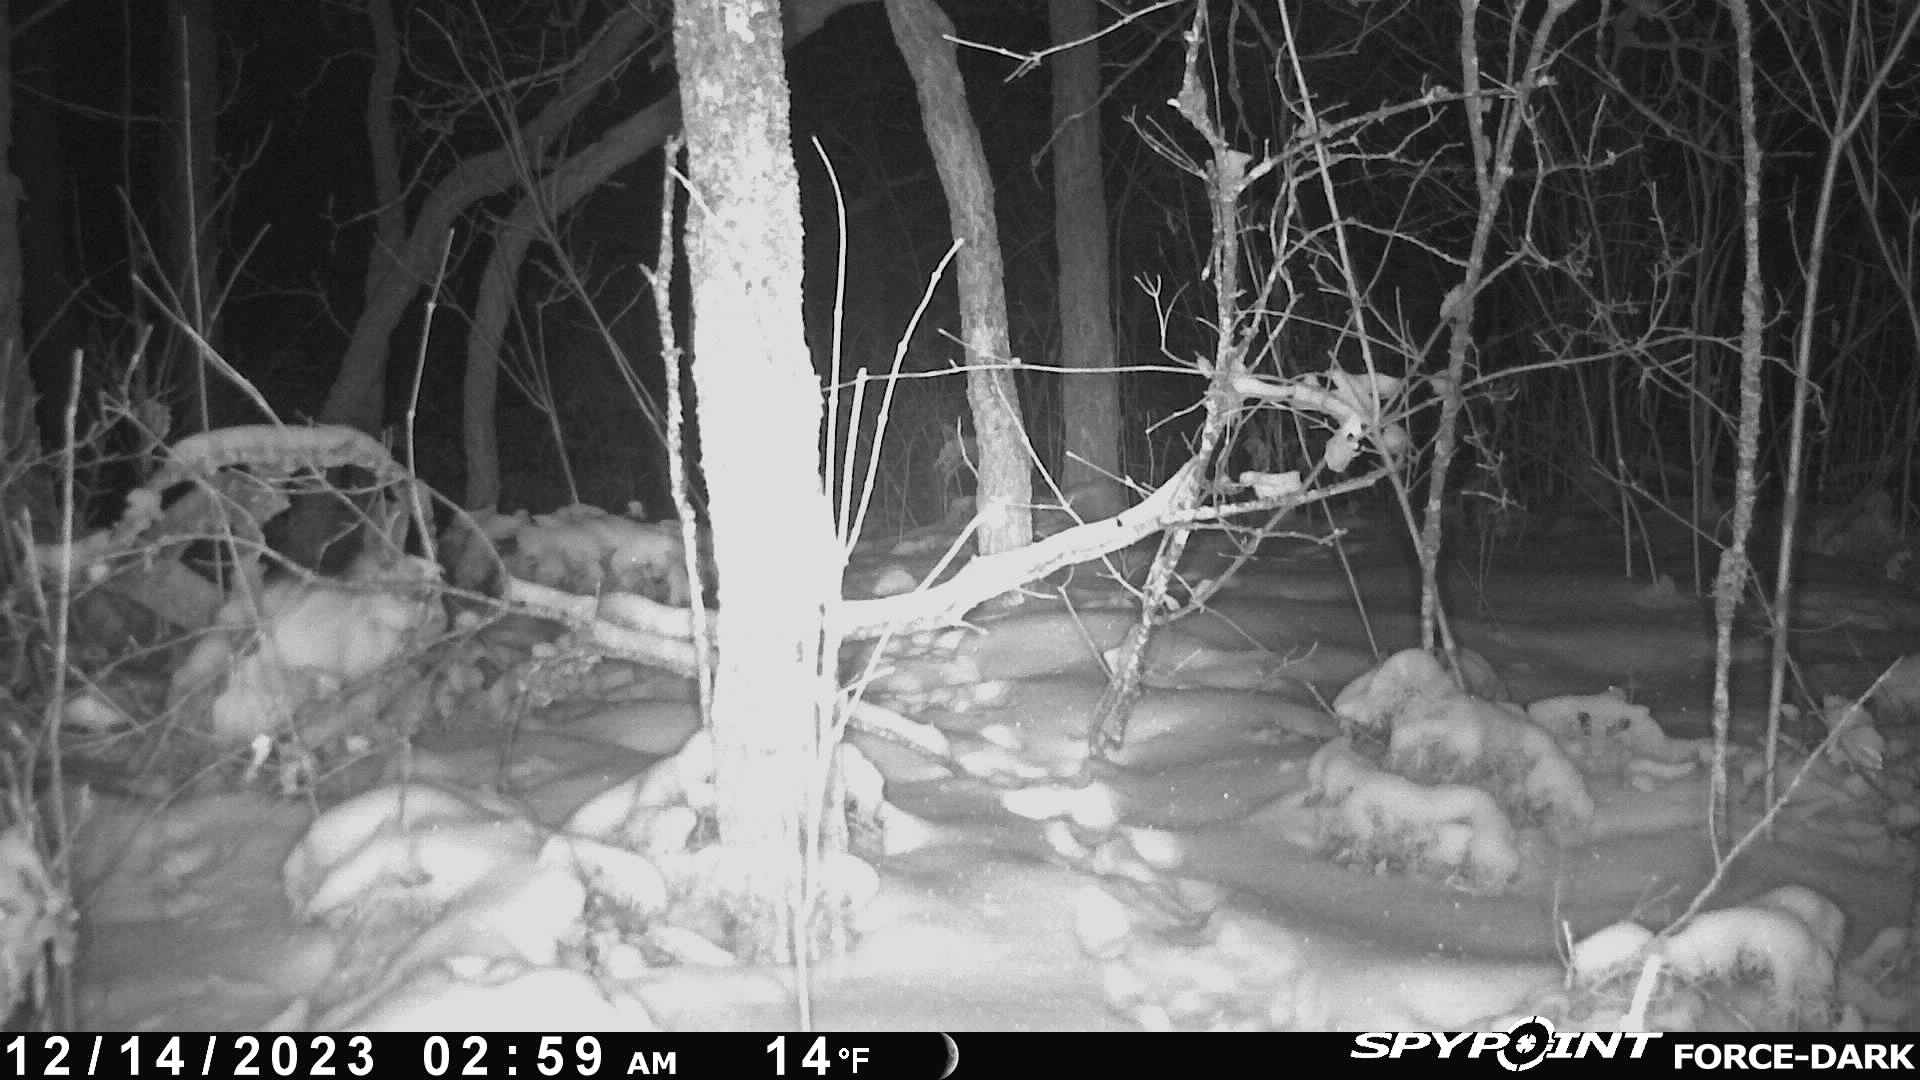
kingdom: Animalia
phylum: Chordata
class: Mammalia
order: Lagomorpha
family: Leporidae
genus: Lepus
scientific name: Lepus americanus
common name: Snowshoe hare
